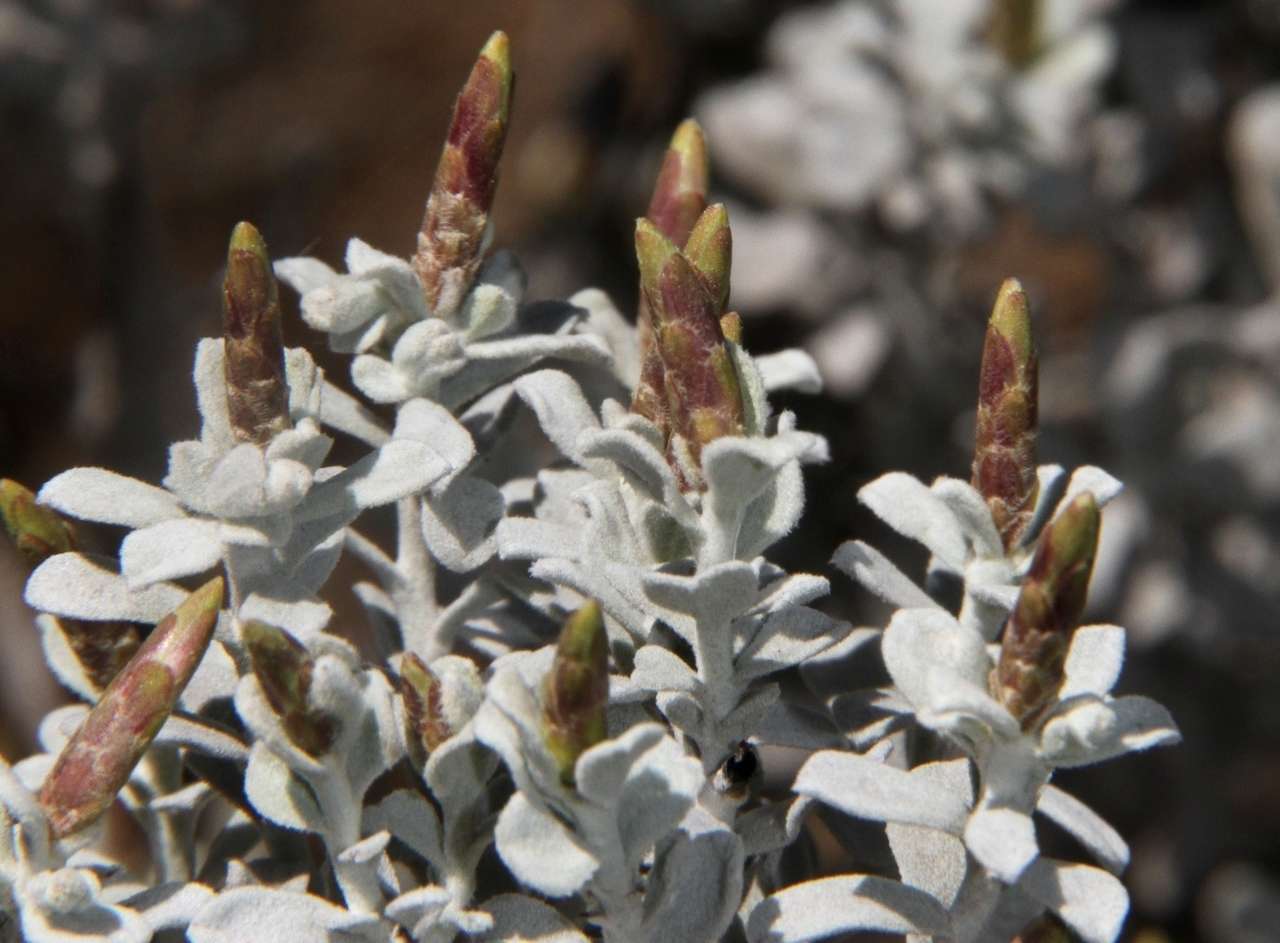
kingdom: Plantae
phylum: Tracheophyta
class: Magnoliopsida
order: Asterales
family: Asteraceae
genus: Cratystylis
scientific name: Cratystylis conocephala
